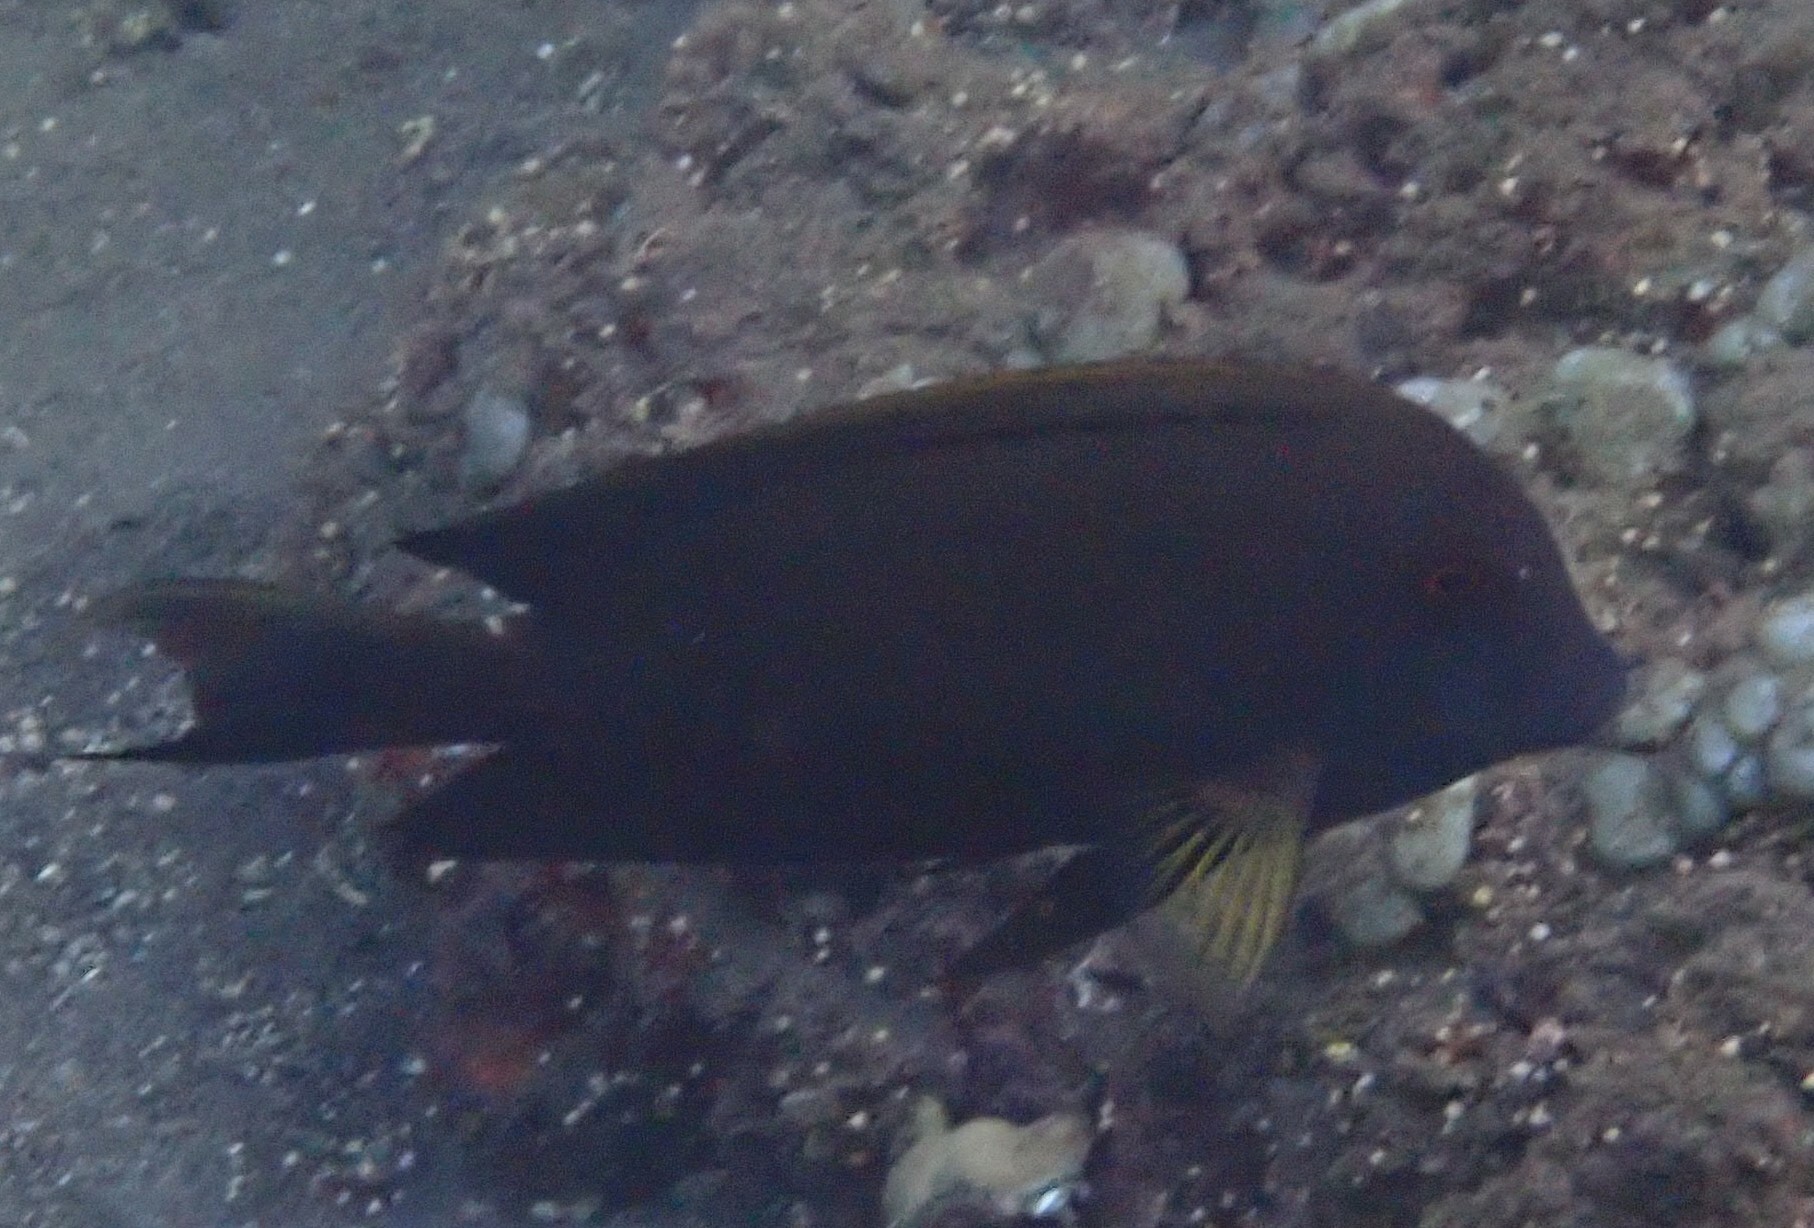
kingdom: Animalia
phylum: Chordata
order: Perciformes
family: Acanthuridae
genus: Ctenochaetus
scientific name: Ctenochaetus striatus
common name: Bristle-toothed surgeonfish
